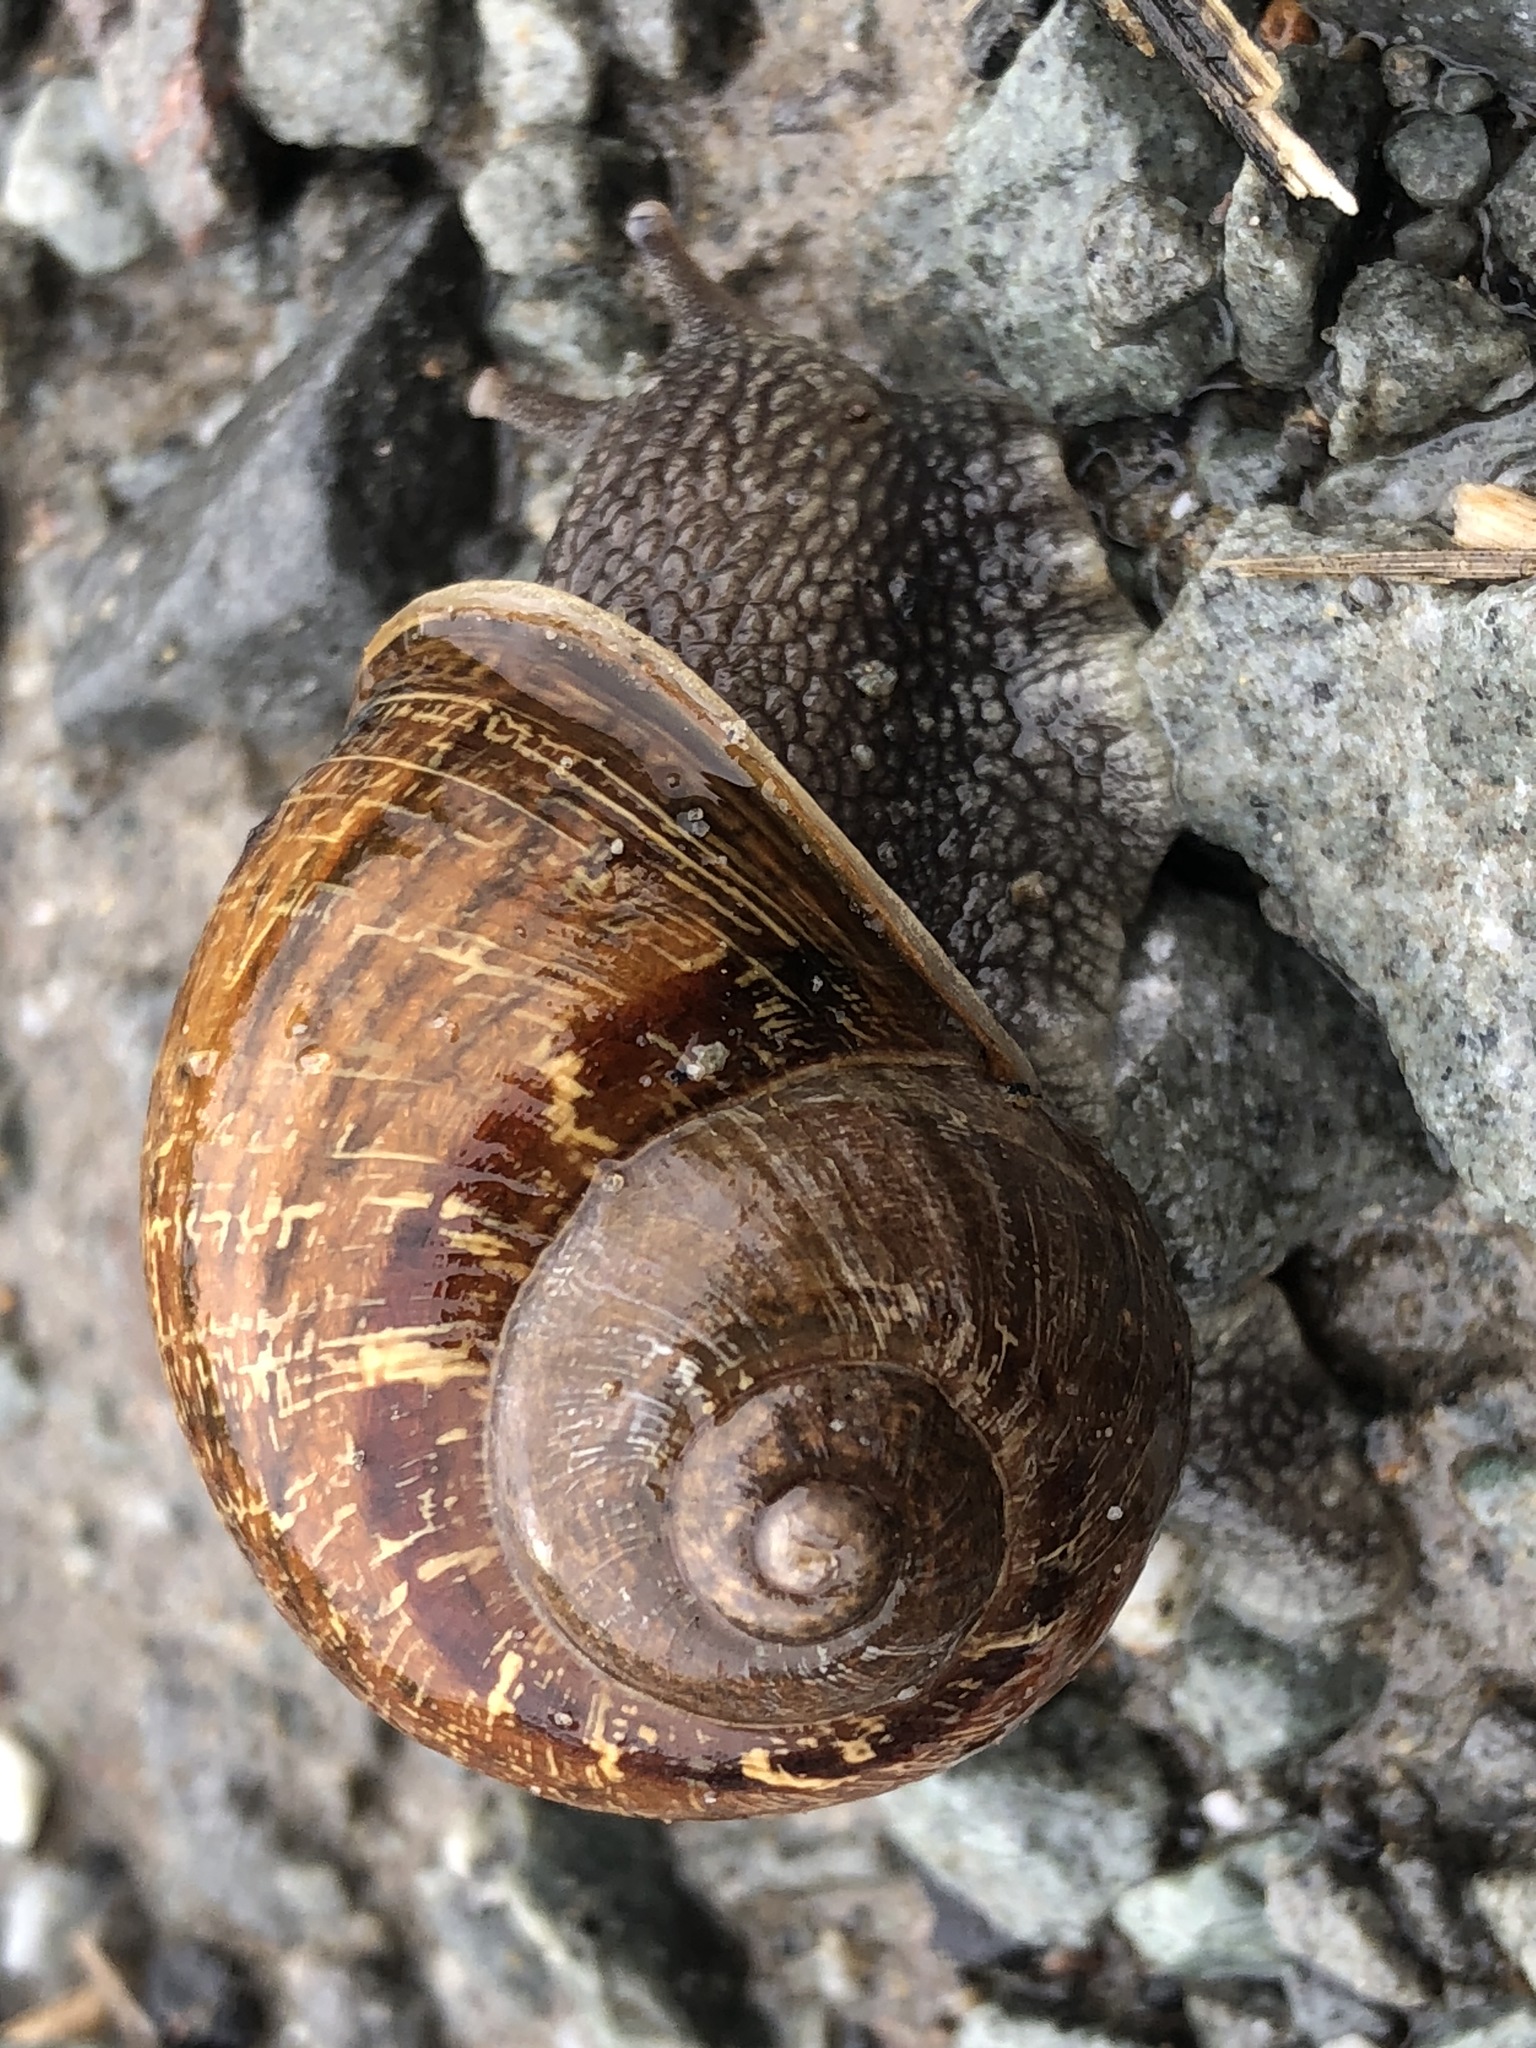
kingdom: Animalia
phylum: Mollusca
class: Gastropoda
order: Stylommatophora
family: Helicidae
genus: Cornu
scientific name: Cornu aspersum
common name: Brown garden snail
